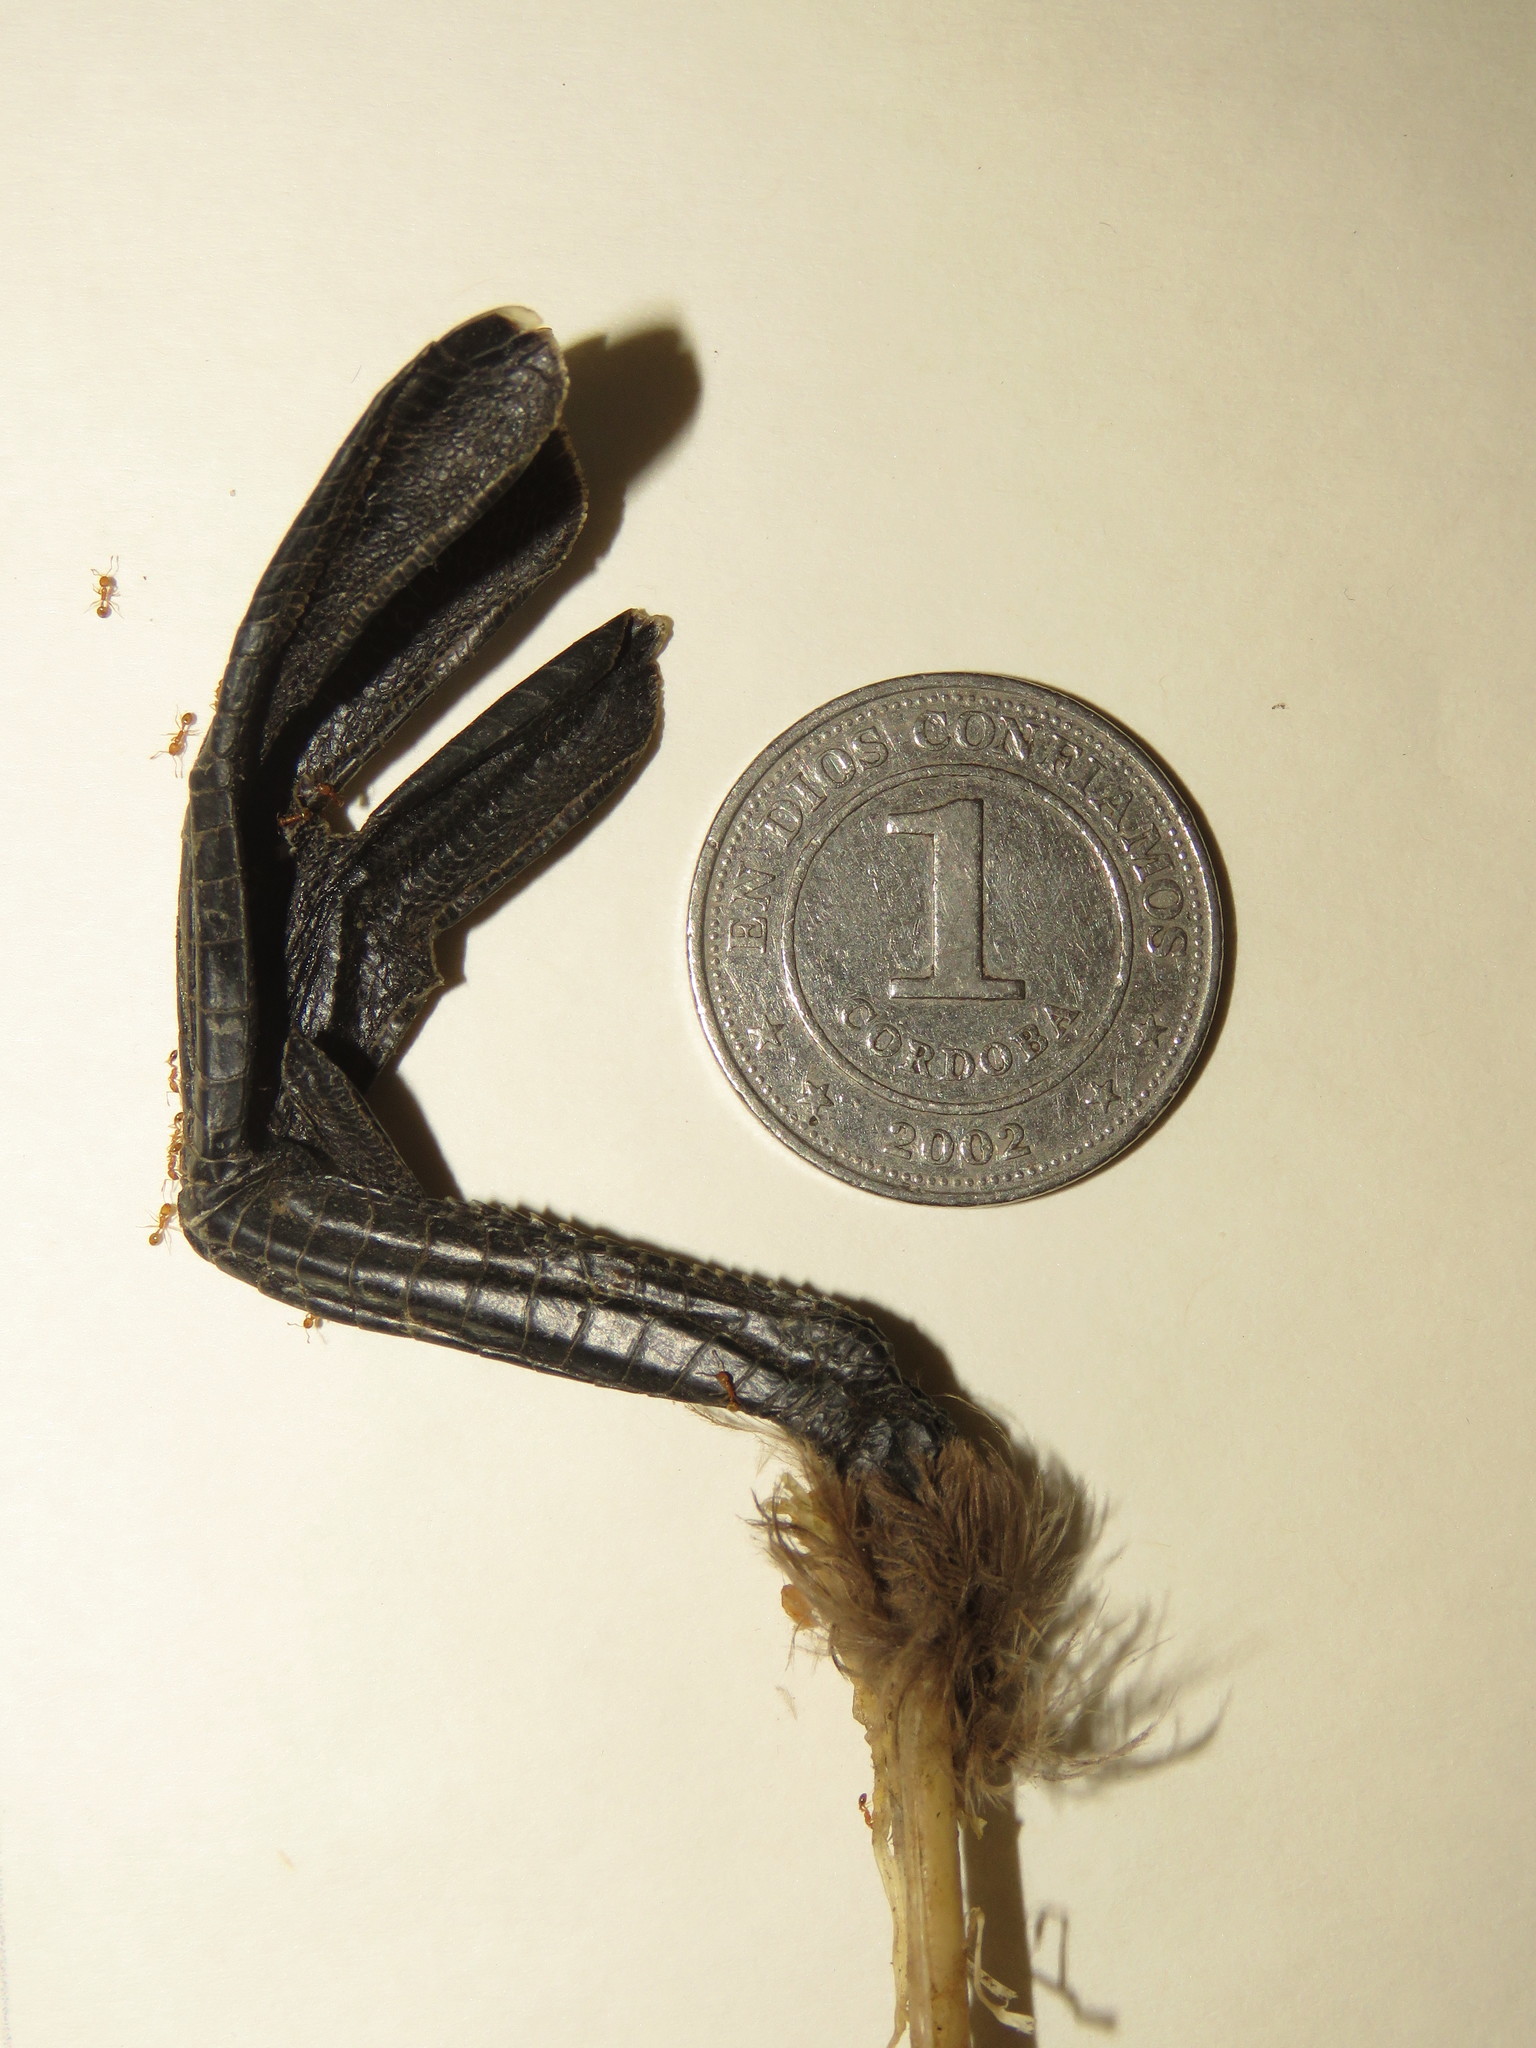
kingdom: Animalia
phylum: Chordata
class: Aves
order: Podicipediformes
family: Podicipedidae
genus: Tachybaptus
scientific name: Tachybaptus dominicus
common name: Least grebe
